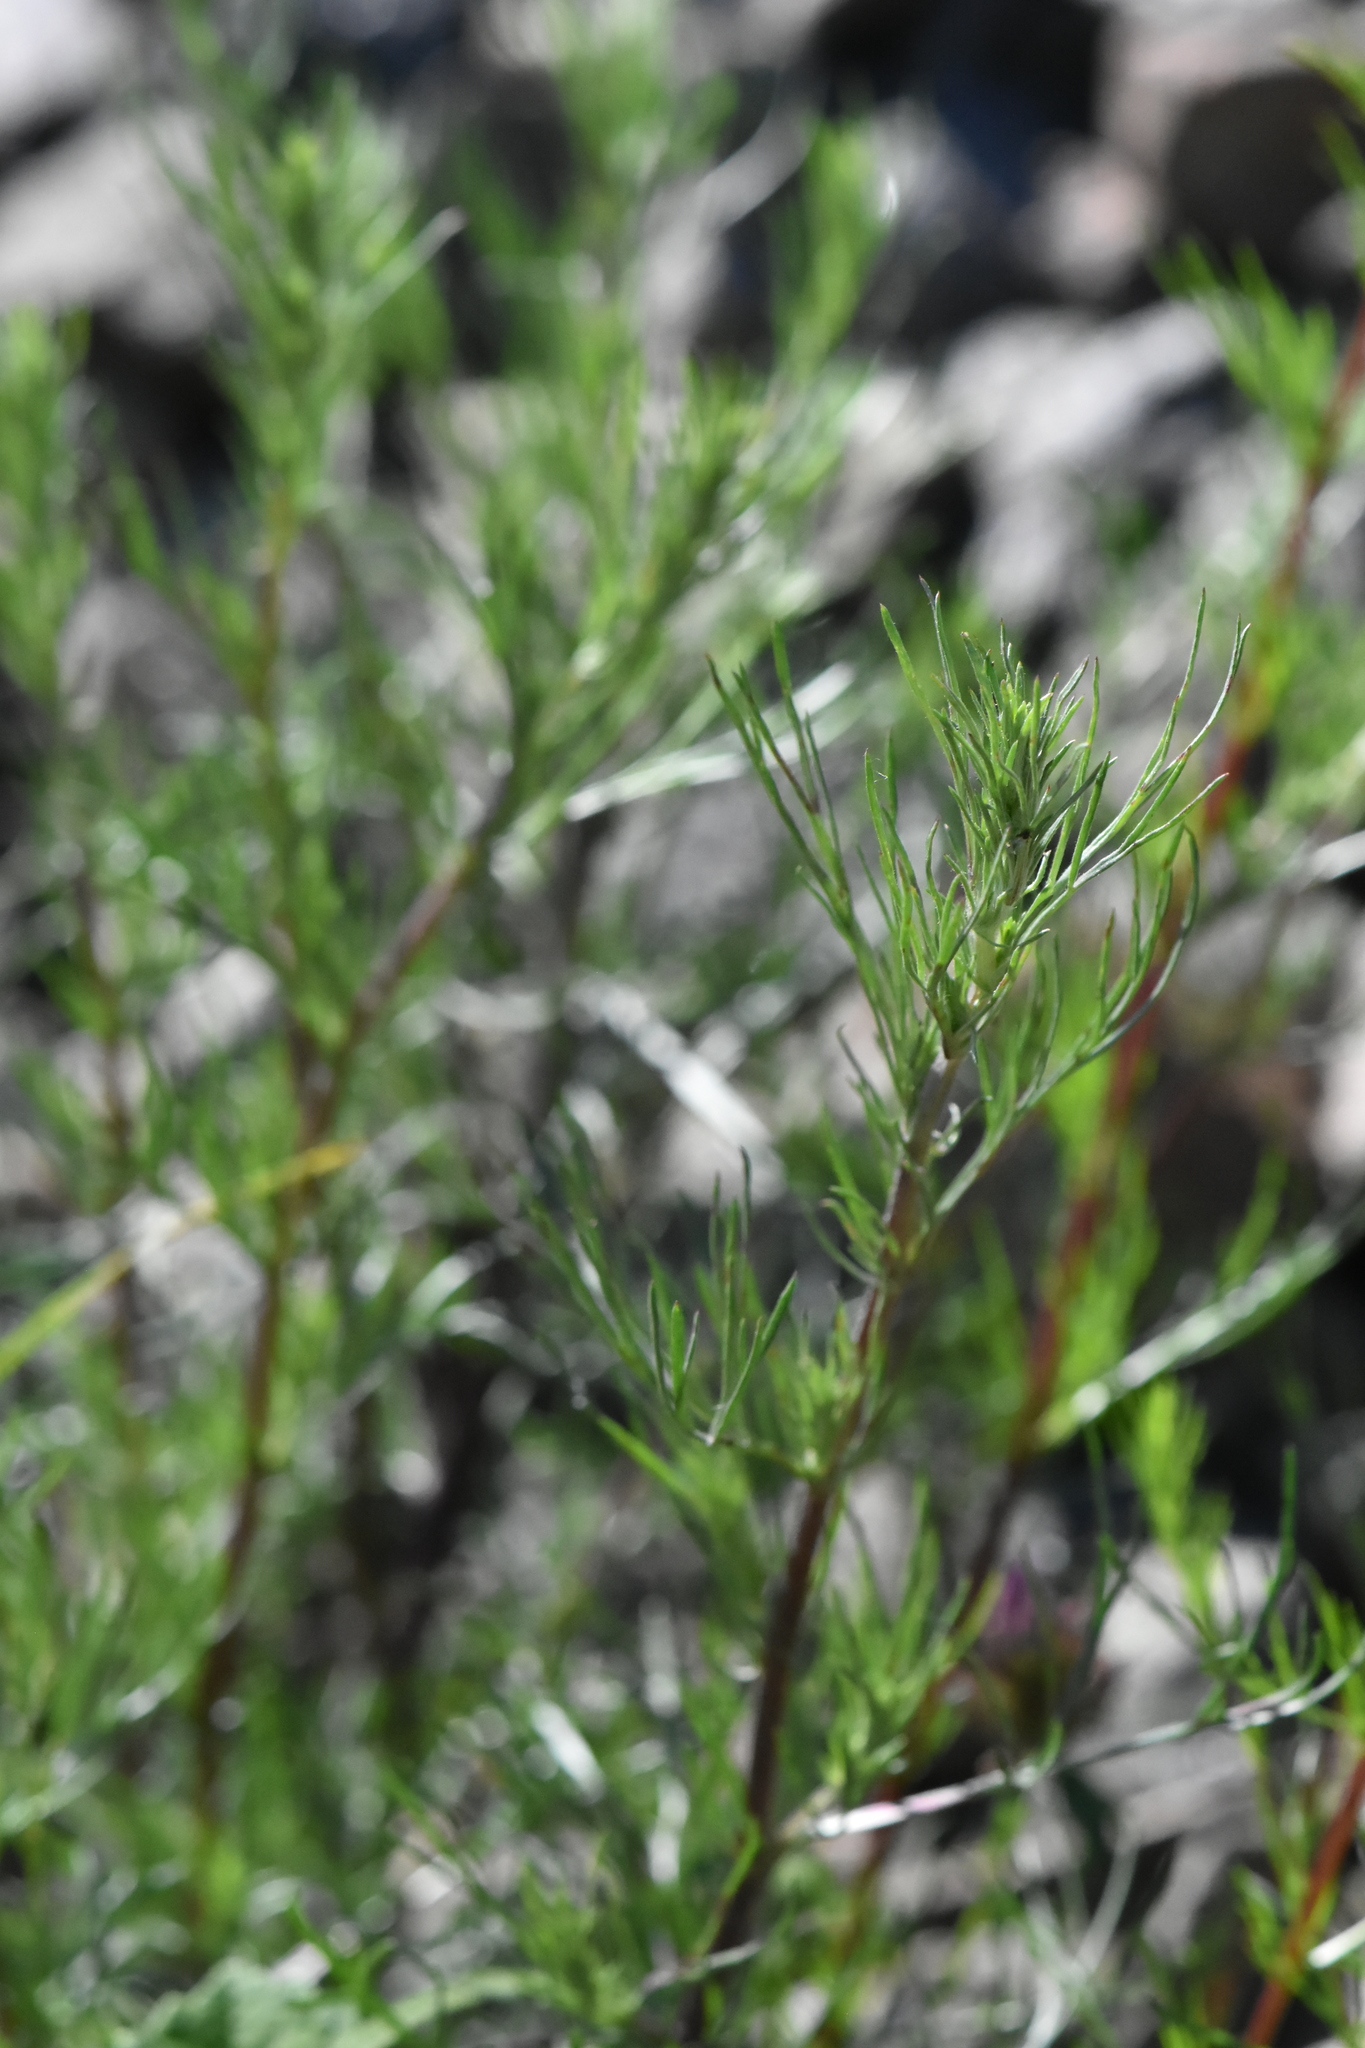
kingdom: Plantae
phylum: Tracheophyta
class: Magnoliopsida
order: Asterales
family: Asteraceae
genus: Artemisia
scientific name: Artemisia campestris
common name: Field wormwood
